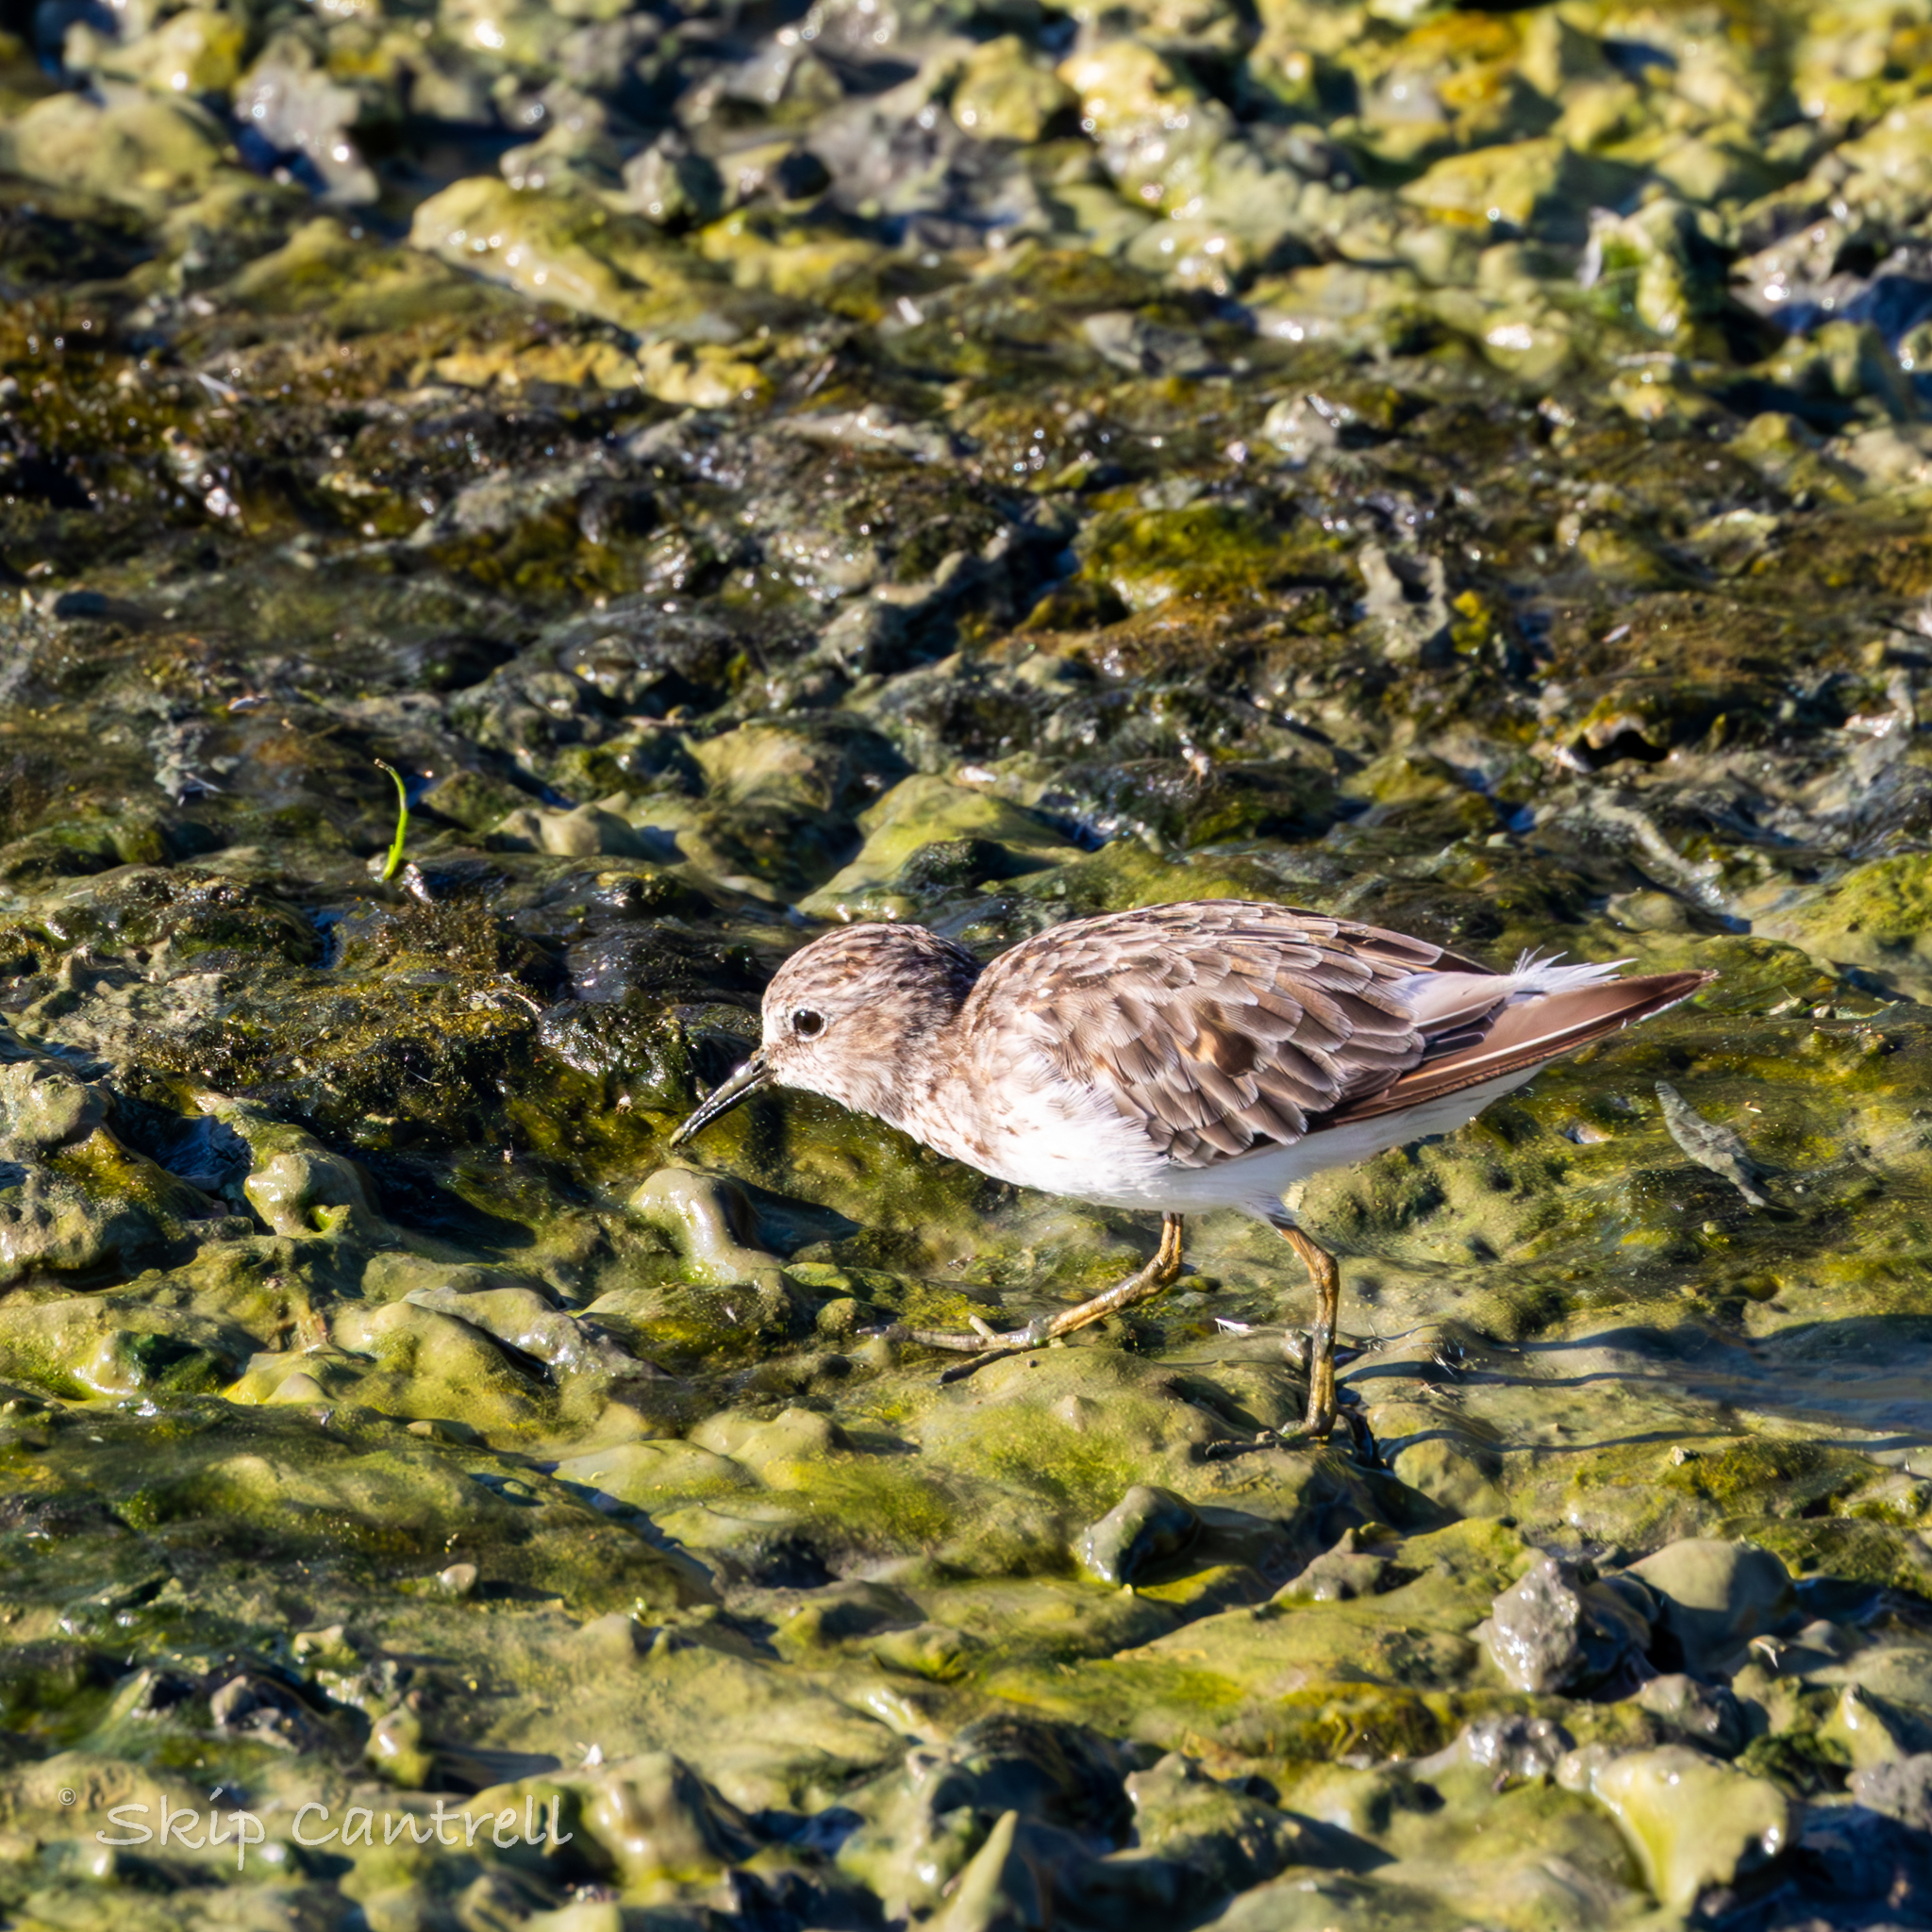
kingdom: Animalia
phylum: Chordata
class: Aves
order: Charadriiformes
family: Scolopacidae
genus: Calidris
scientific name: Calidris minutilla
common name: Least sandpiper
